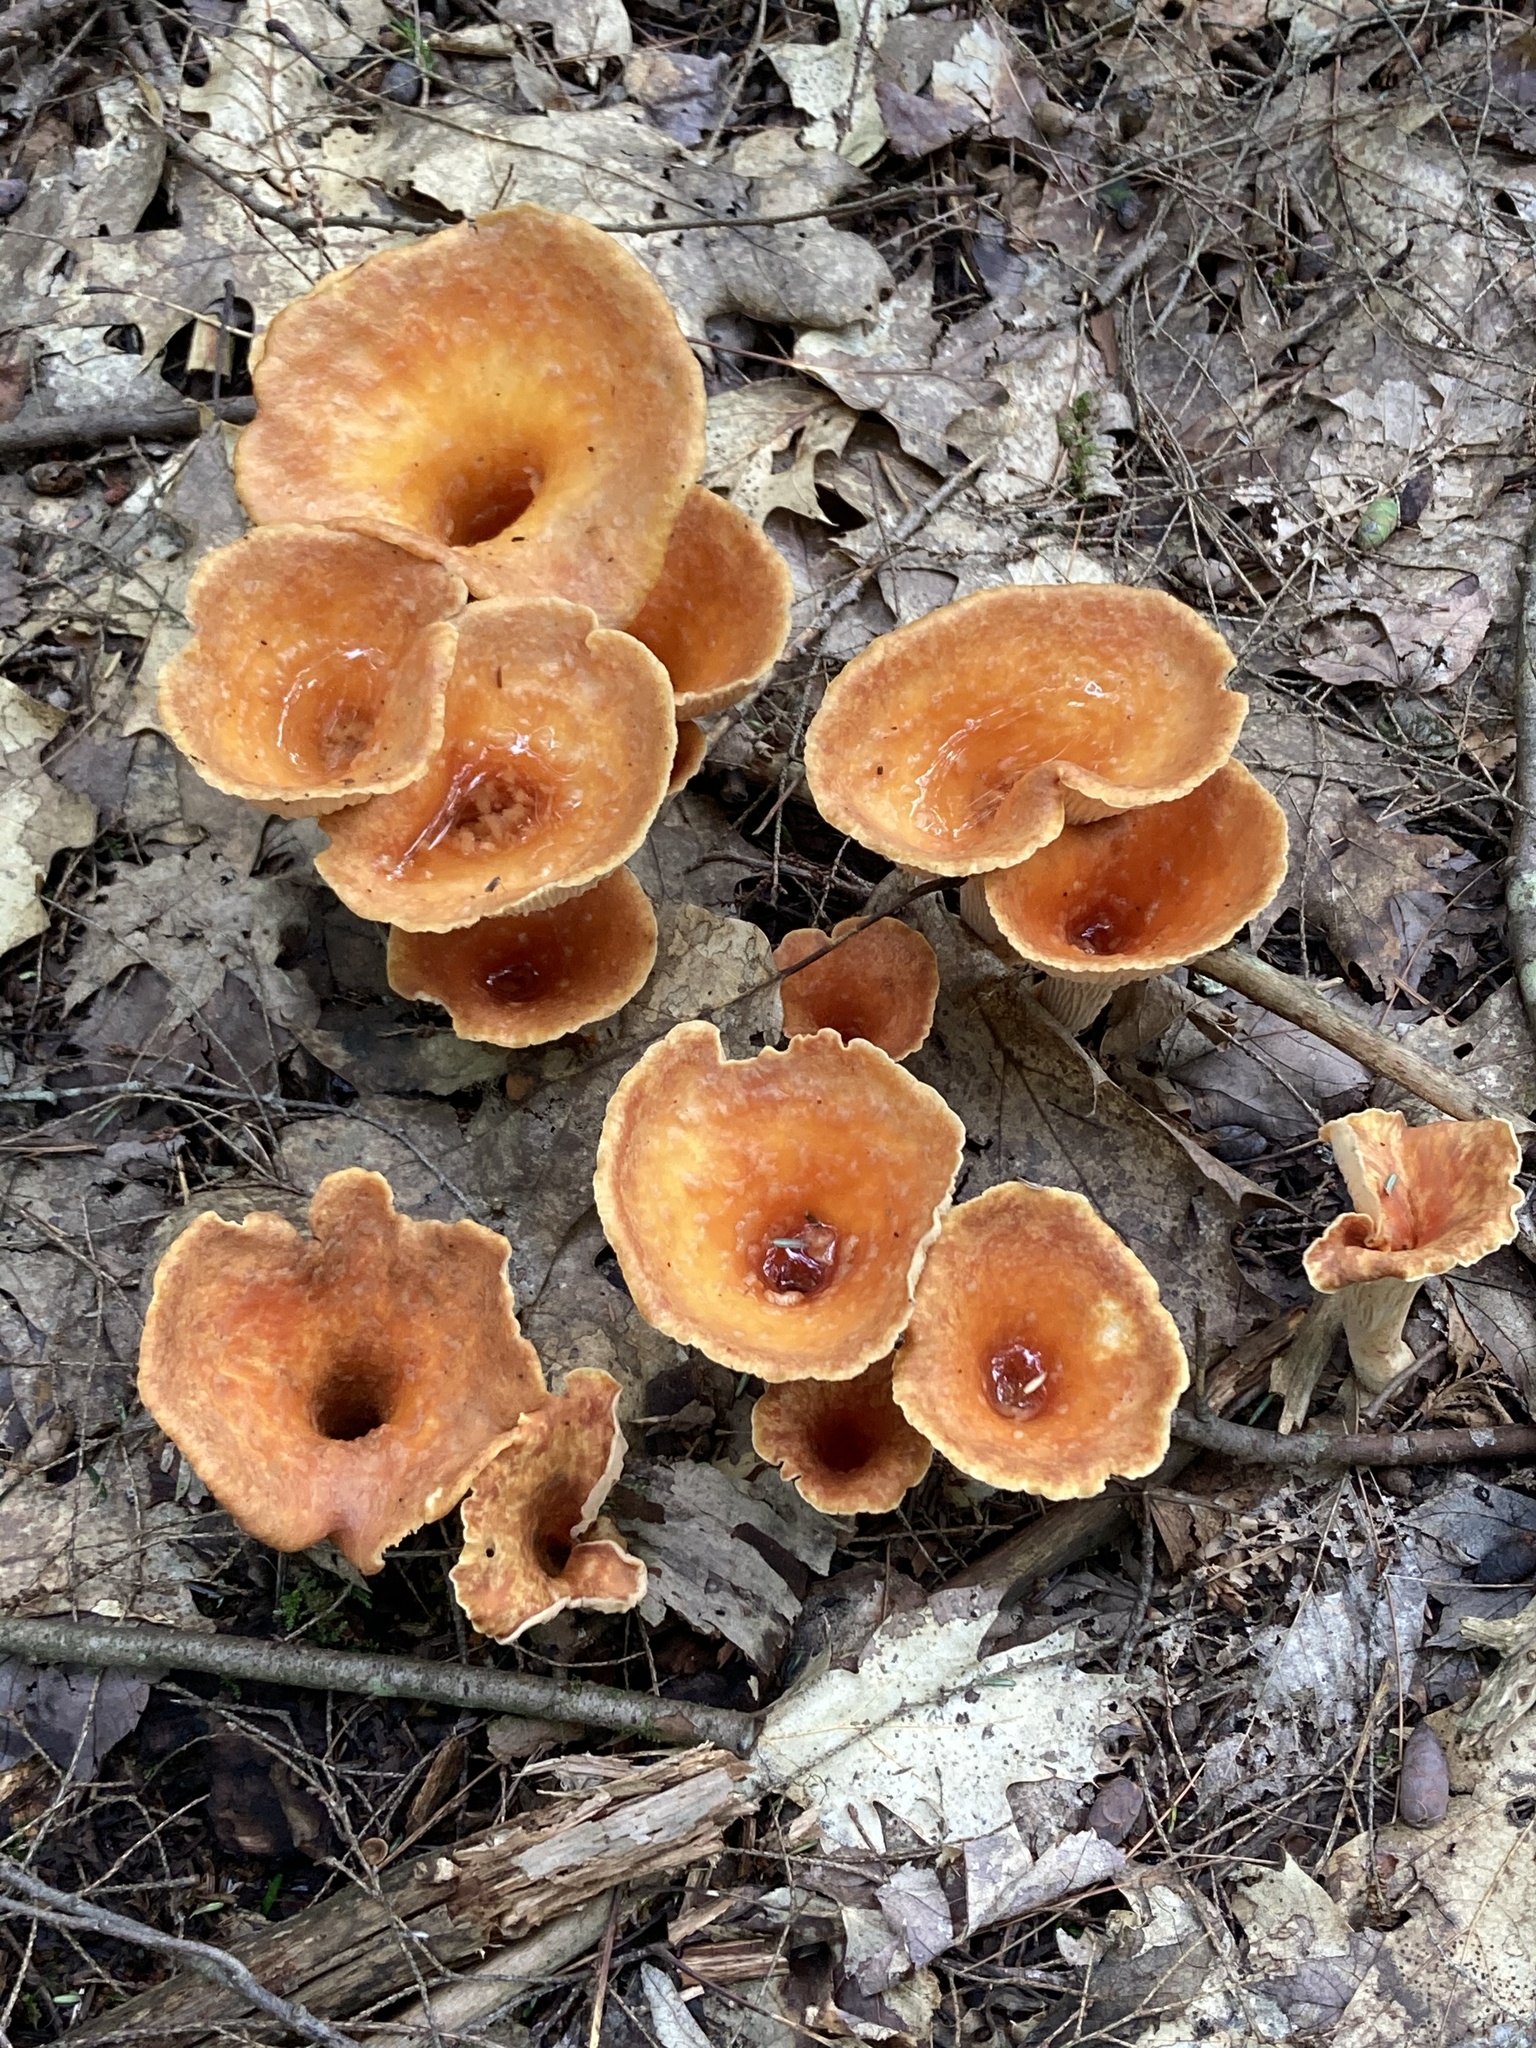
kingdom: Fungi
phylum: Basidiomycota
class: Agaricomycetes
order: Gomphales
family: Gomphaceae
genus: Turbinellus
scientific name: Turbinellus floccosus
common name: Scaly chanterelle
